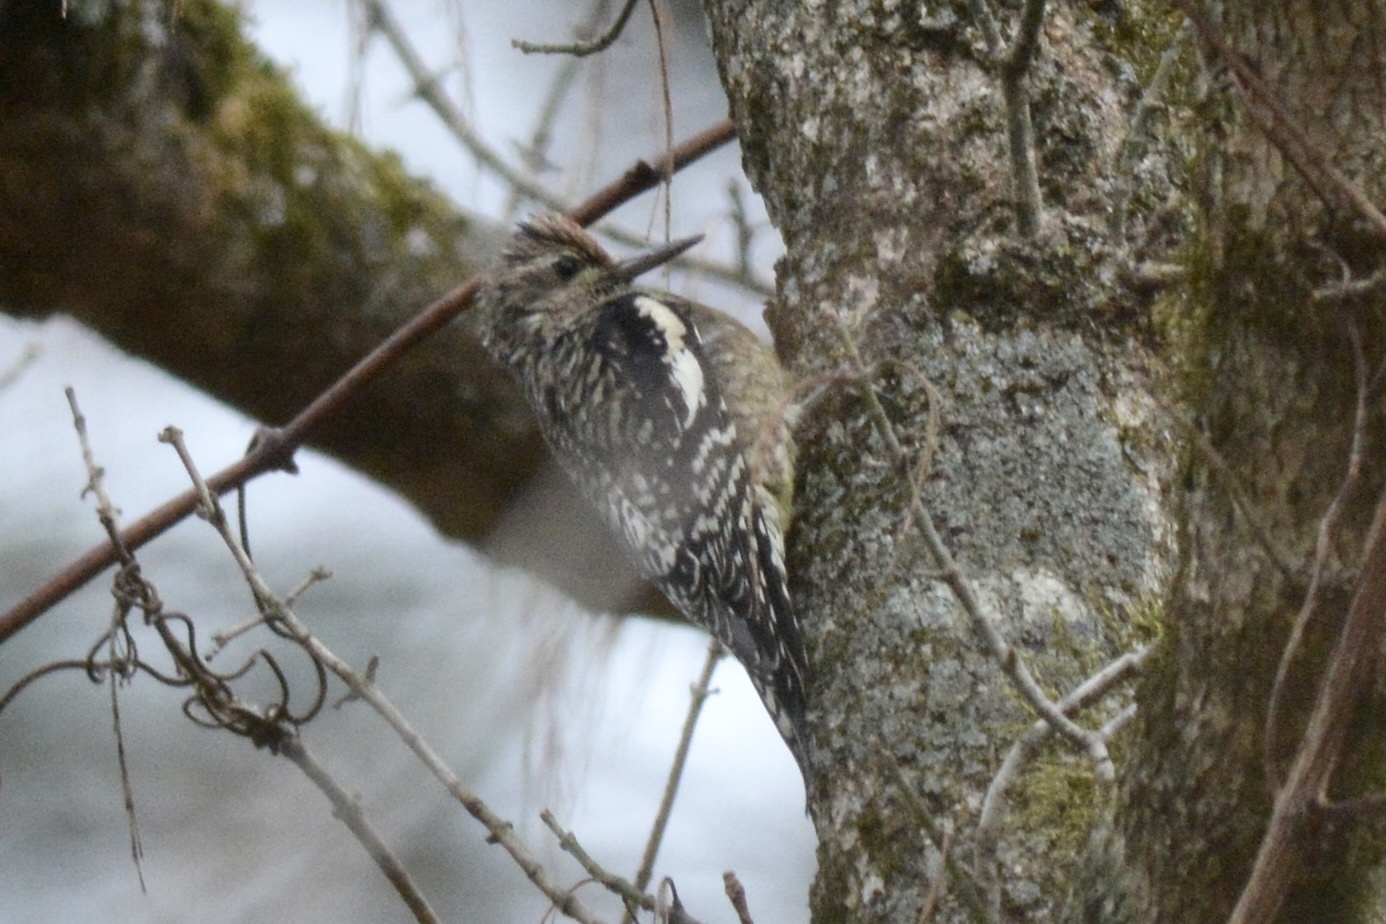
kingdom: Animalia
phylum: Chordata
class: Aves
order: Piciformes
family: Picidae
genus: Sphyrapicus
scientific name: Sphyrapicus varius
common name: Yellow-bellied sapsucker
